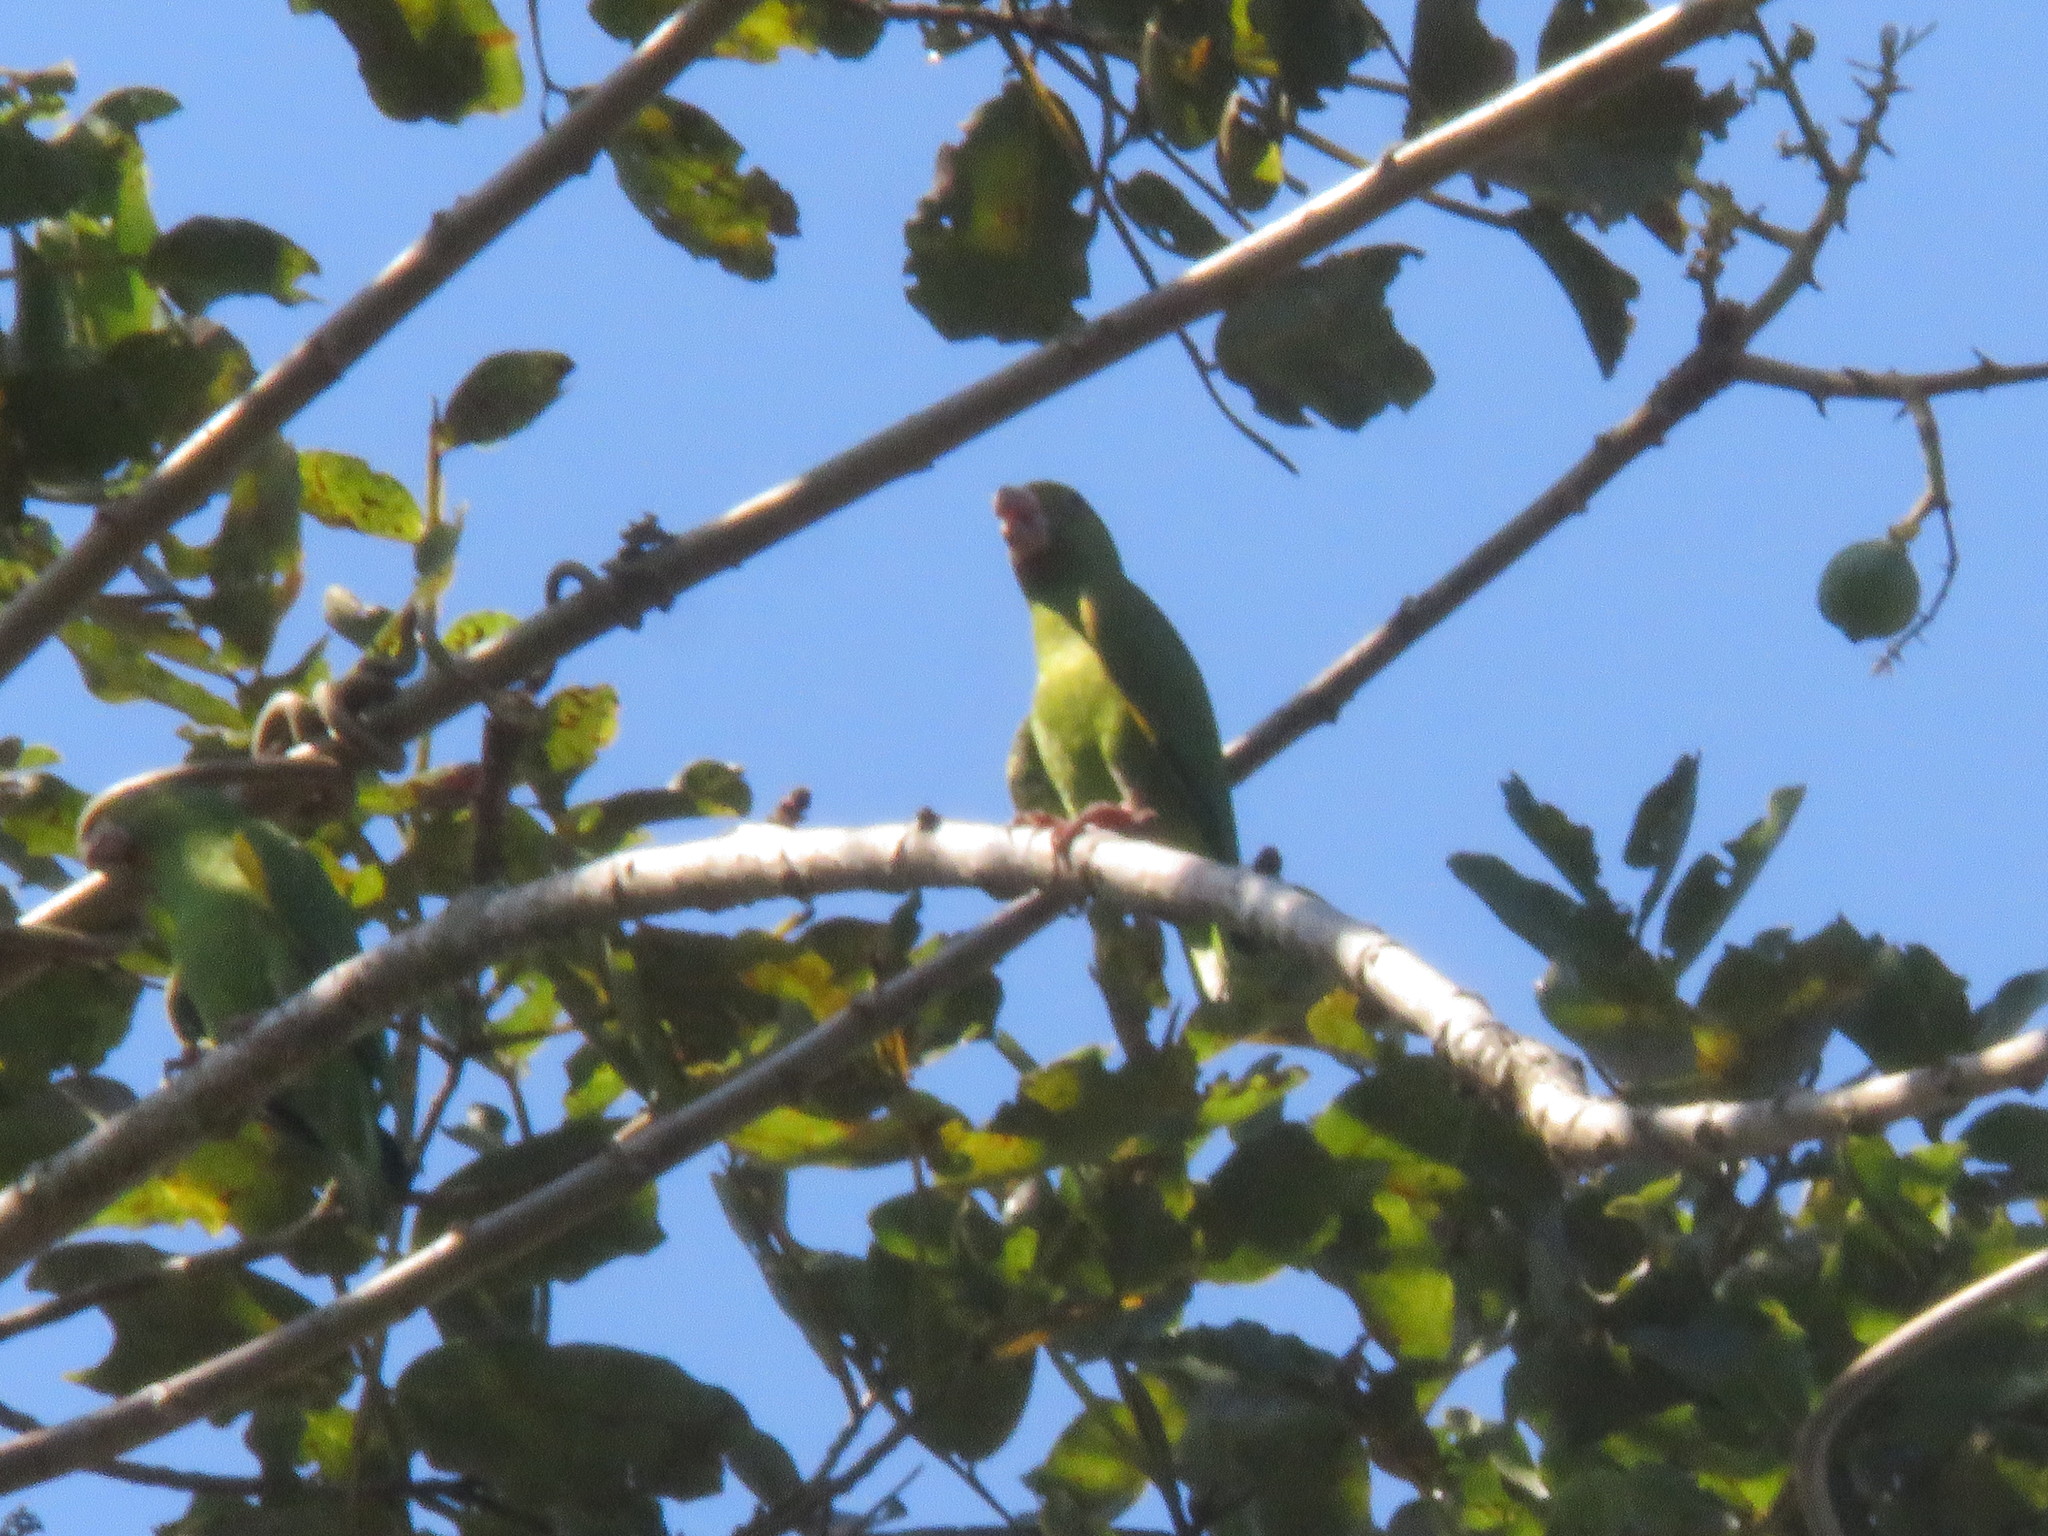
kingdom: Animalia
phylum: Chordata
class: Aves
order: Psittaciformes
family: Psittacidae
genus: Brotogeris
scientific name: Brotogeris cyanoptera
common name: Cobalt-winged parakeet
